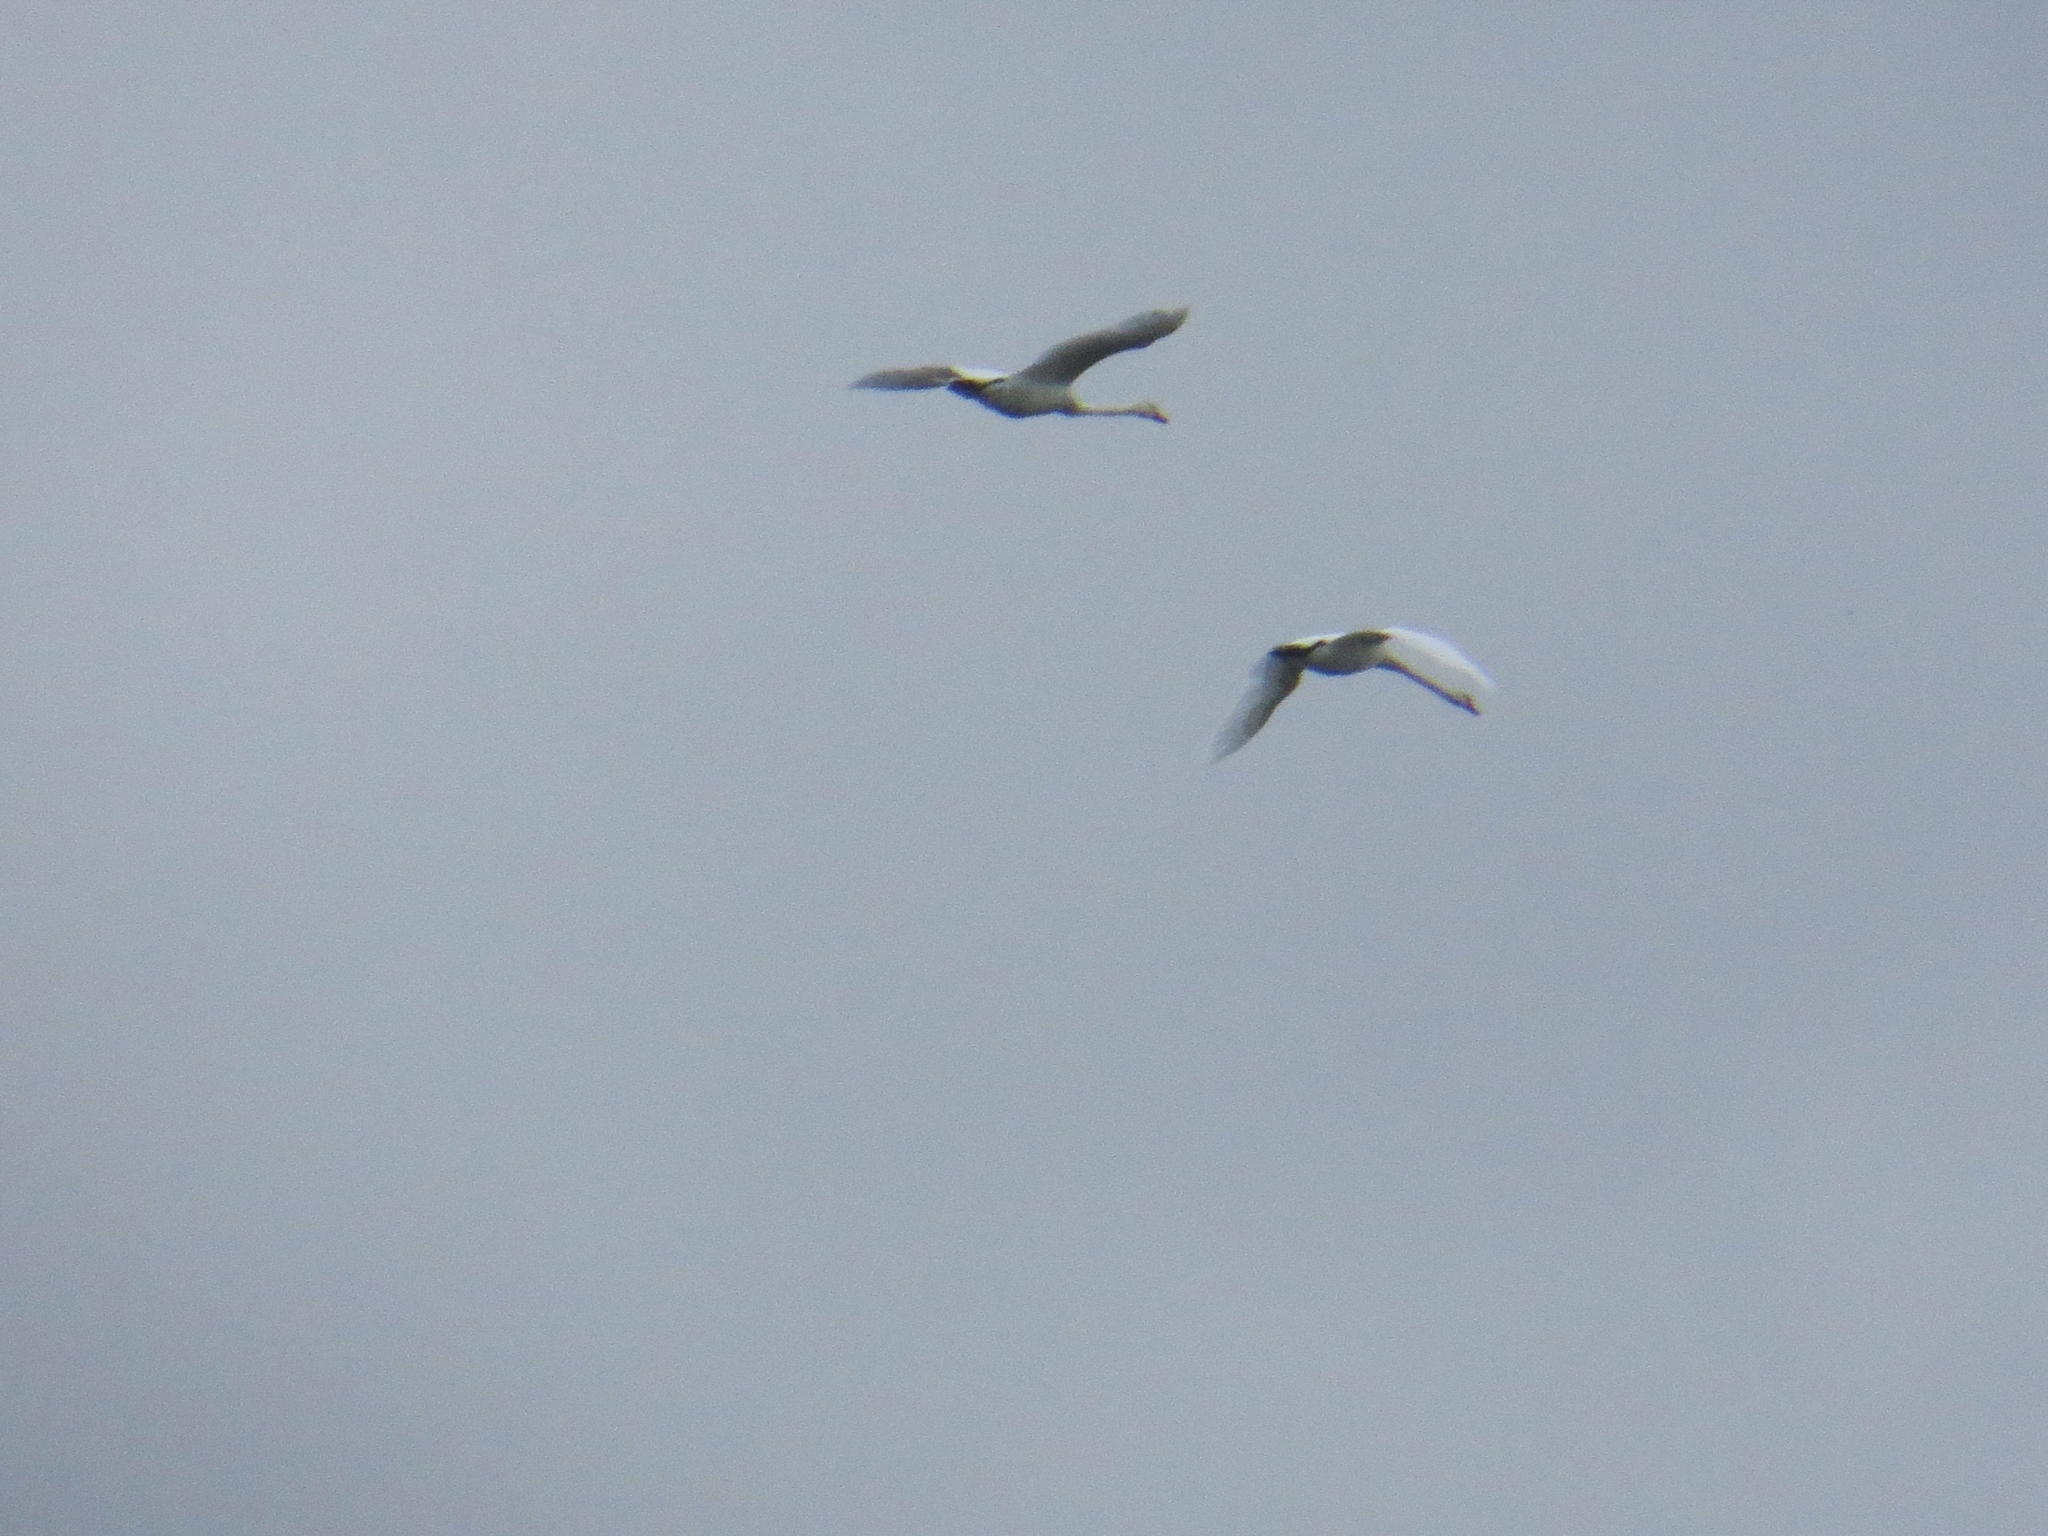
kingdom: Animalia
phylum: Chordata
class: Aves
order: Anseriformes
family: Anatidae
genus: Cygnus
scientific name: Cygnus olor
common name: Mute swan
